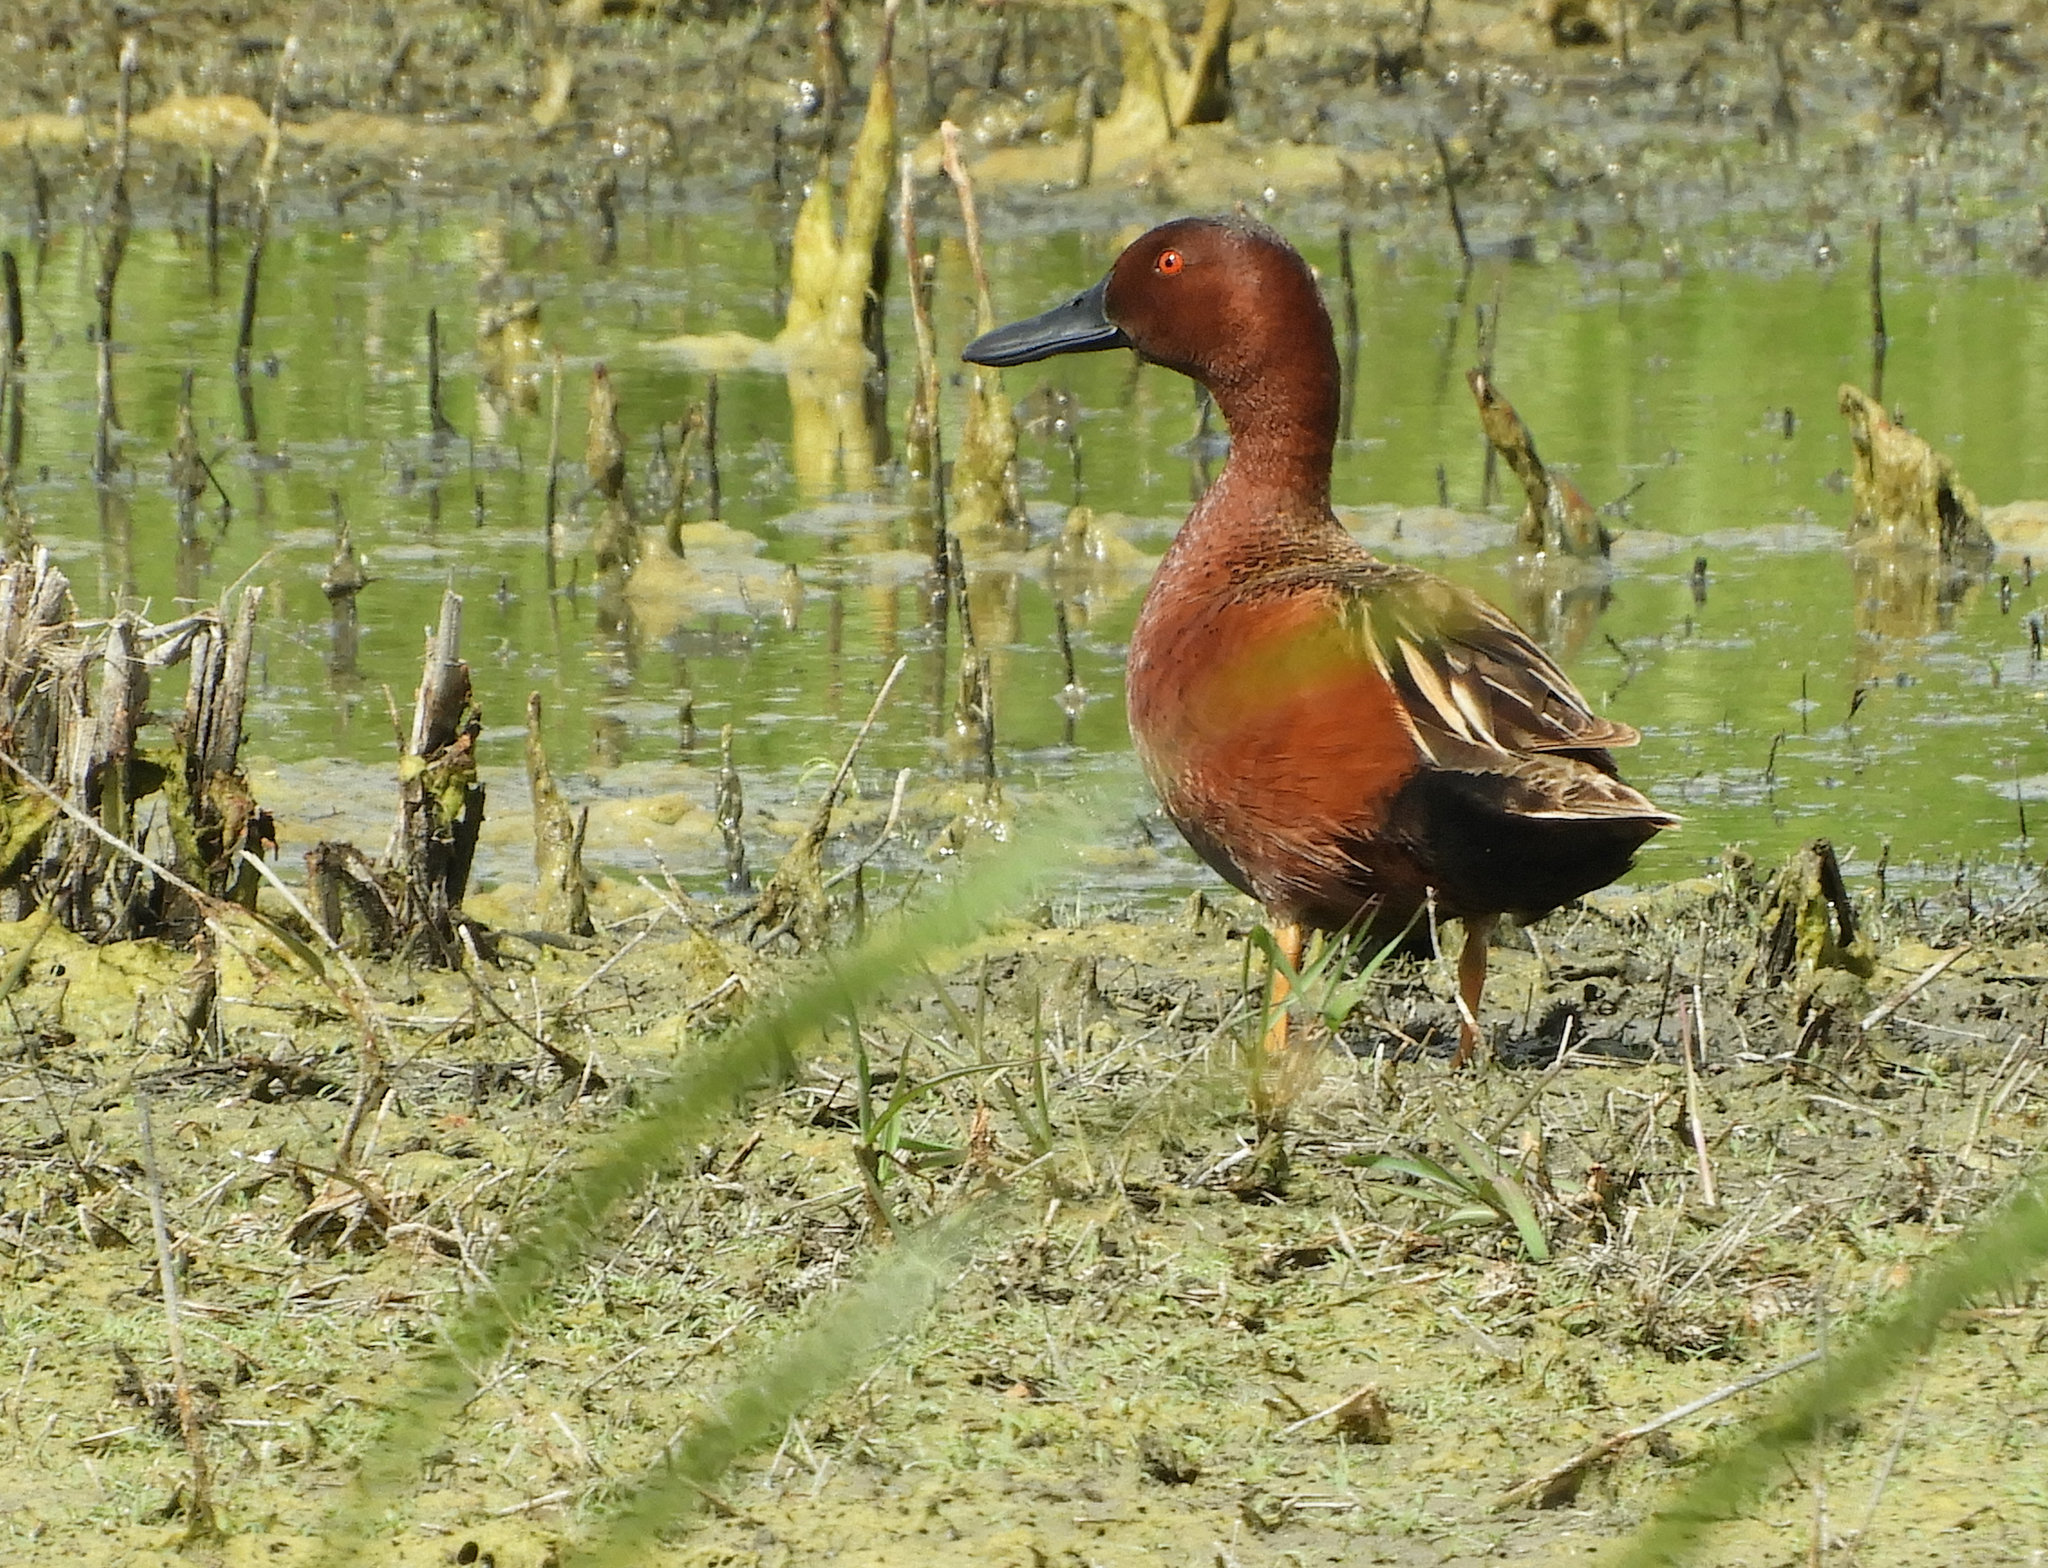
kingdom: Animalia
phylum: Chordata
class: Aves
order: Anseriformes
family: Anatidae
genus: Spatula
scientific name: Spatula cyanoptera
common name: Cinnamon teal
